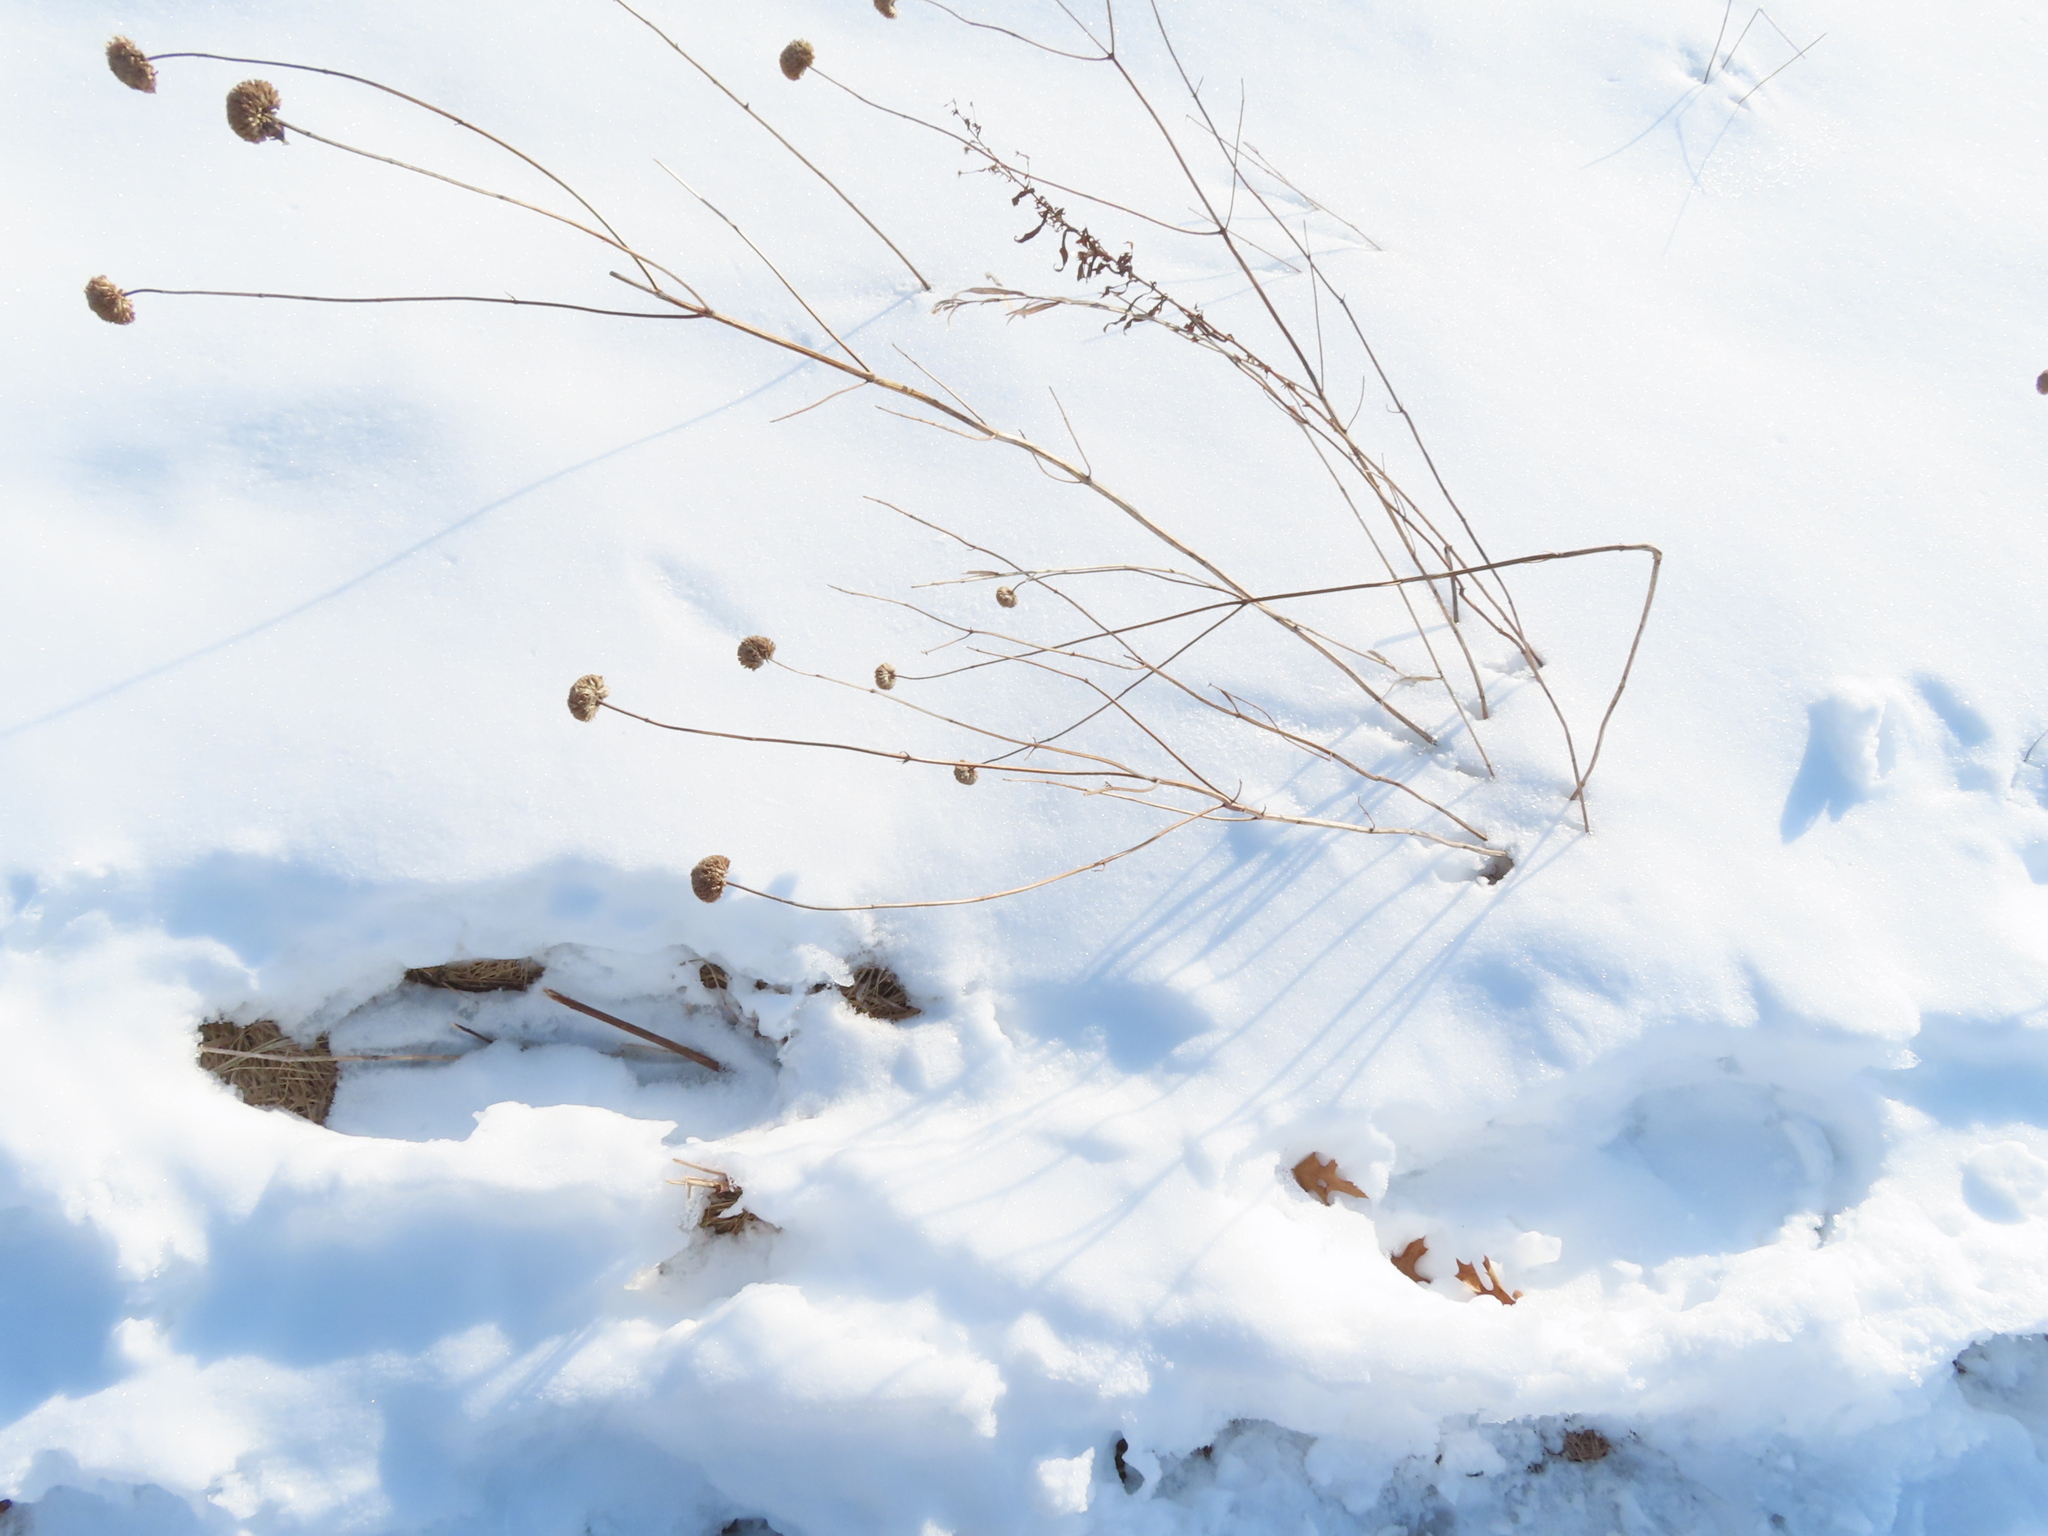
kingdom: Plantae
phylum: Tracheophyta
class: Magnoliopsida
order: Lamiales
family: Lamiaceae
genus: Monarda
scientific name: Monarda fistulosa
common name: Purple beebalm
